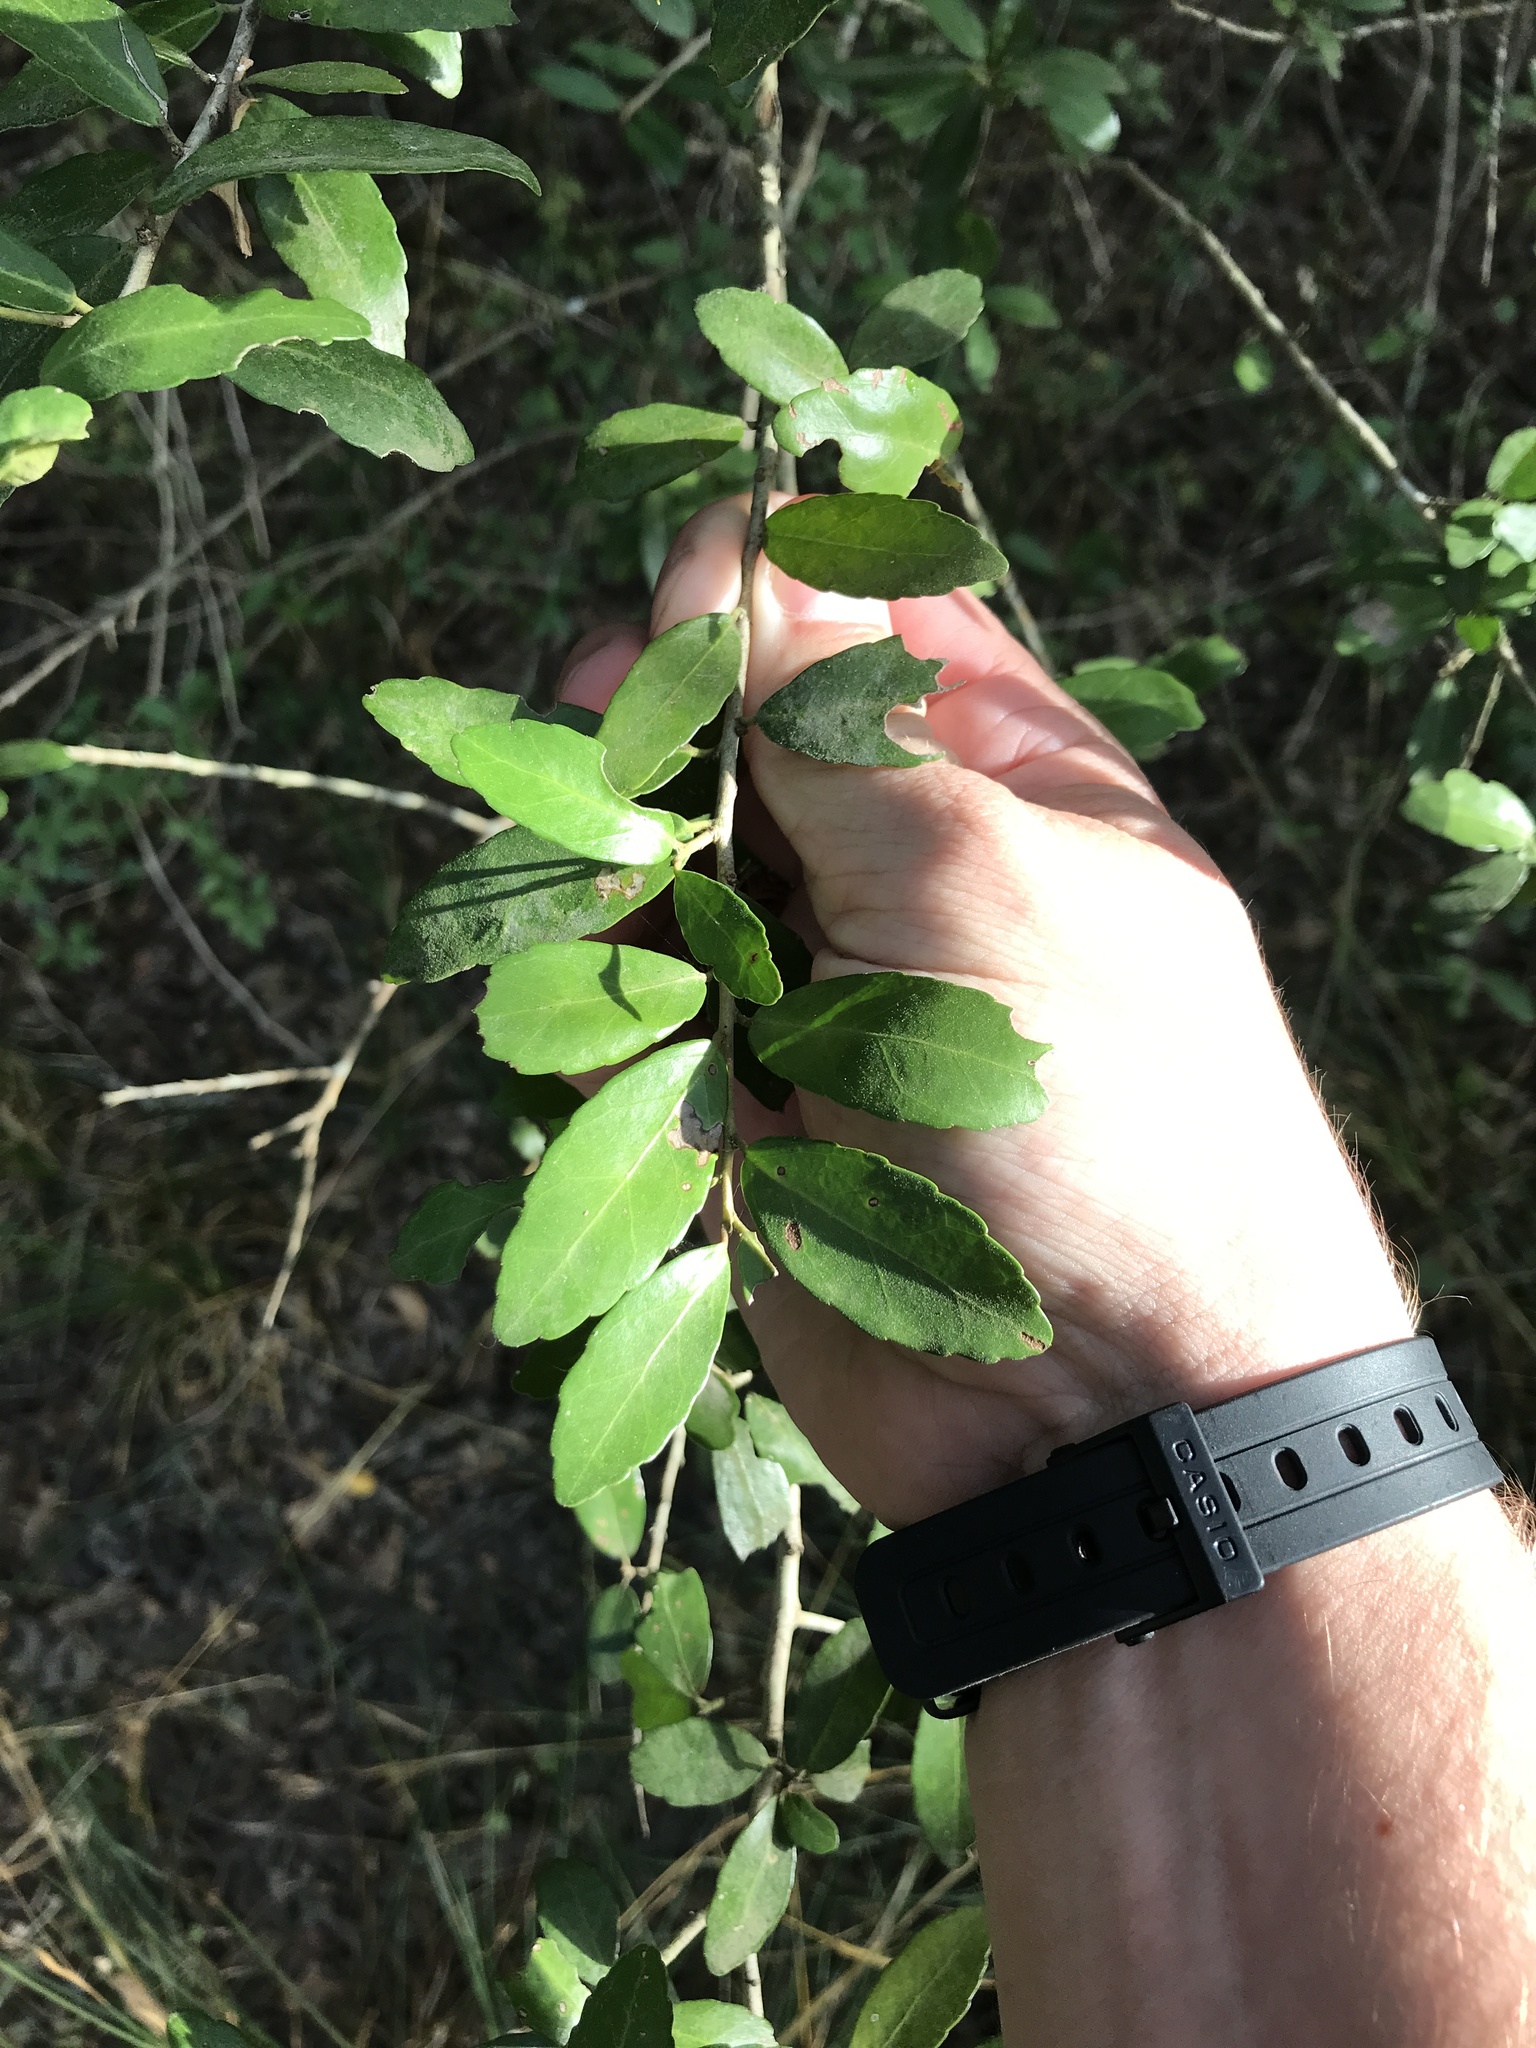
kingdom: Plantae
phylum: Tracheophyta
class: Magnoliopsida
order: Aquifoliales
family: Aquifoliaceae
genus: Ilex
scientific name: Ilex vomitoria
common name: Yaupon holly
